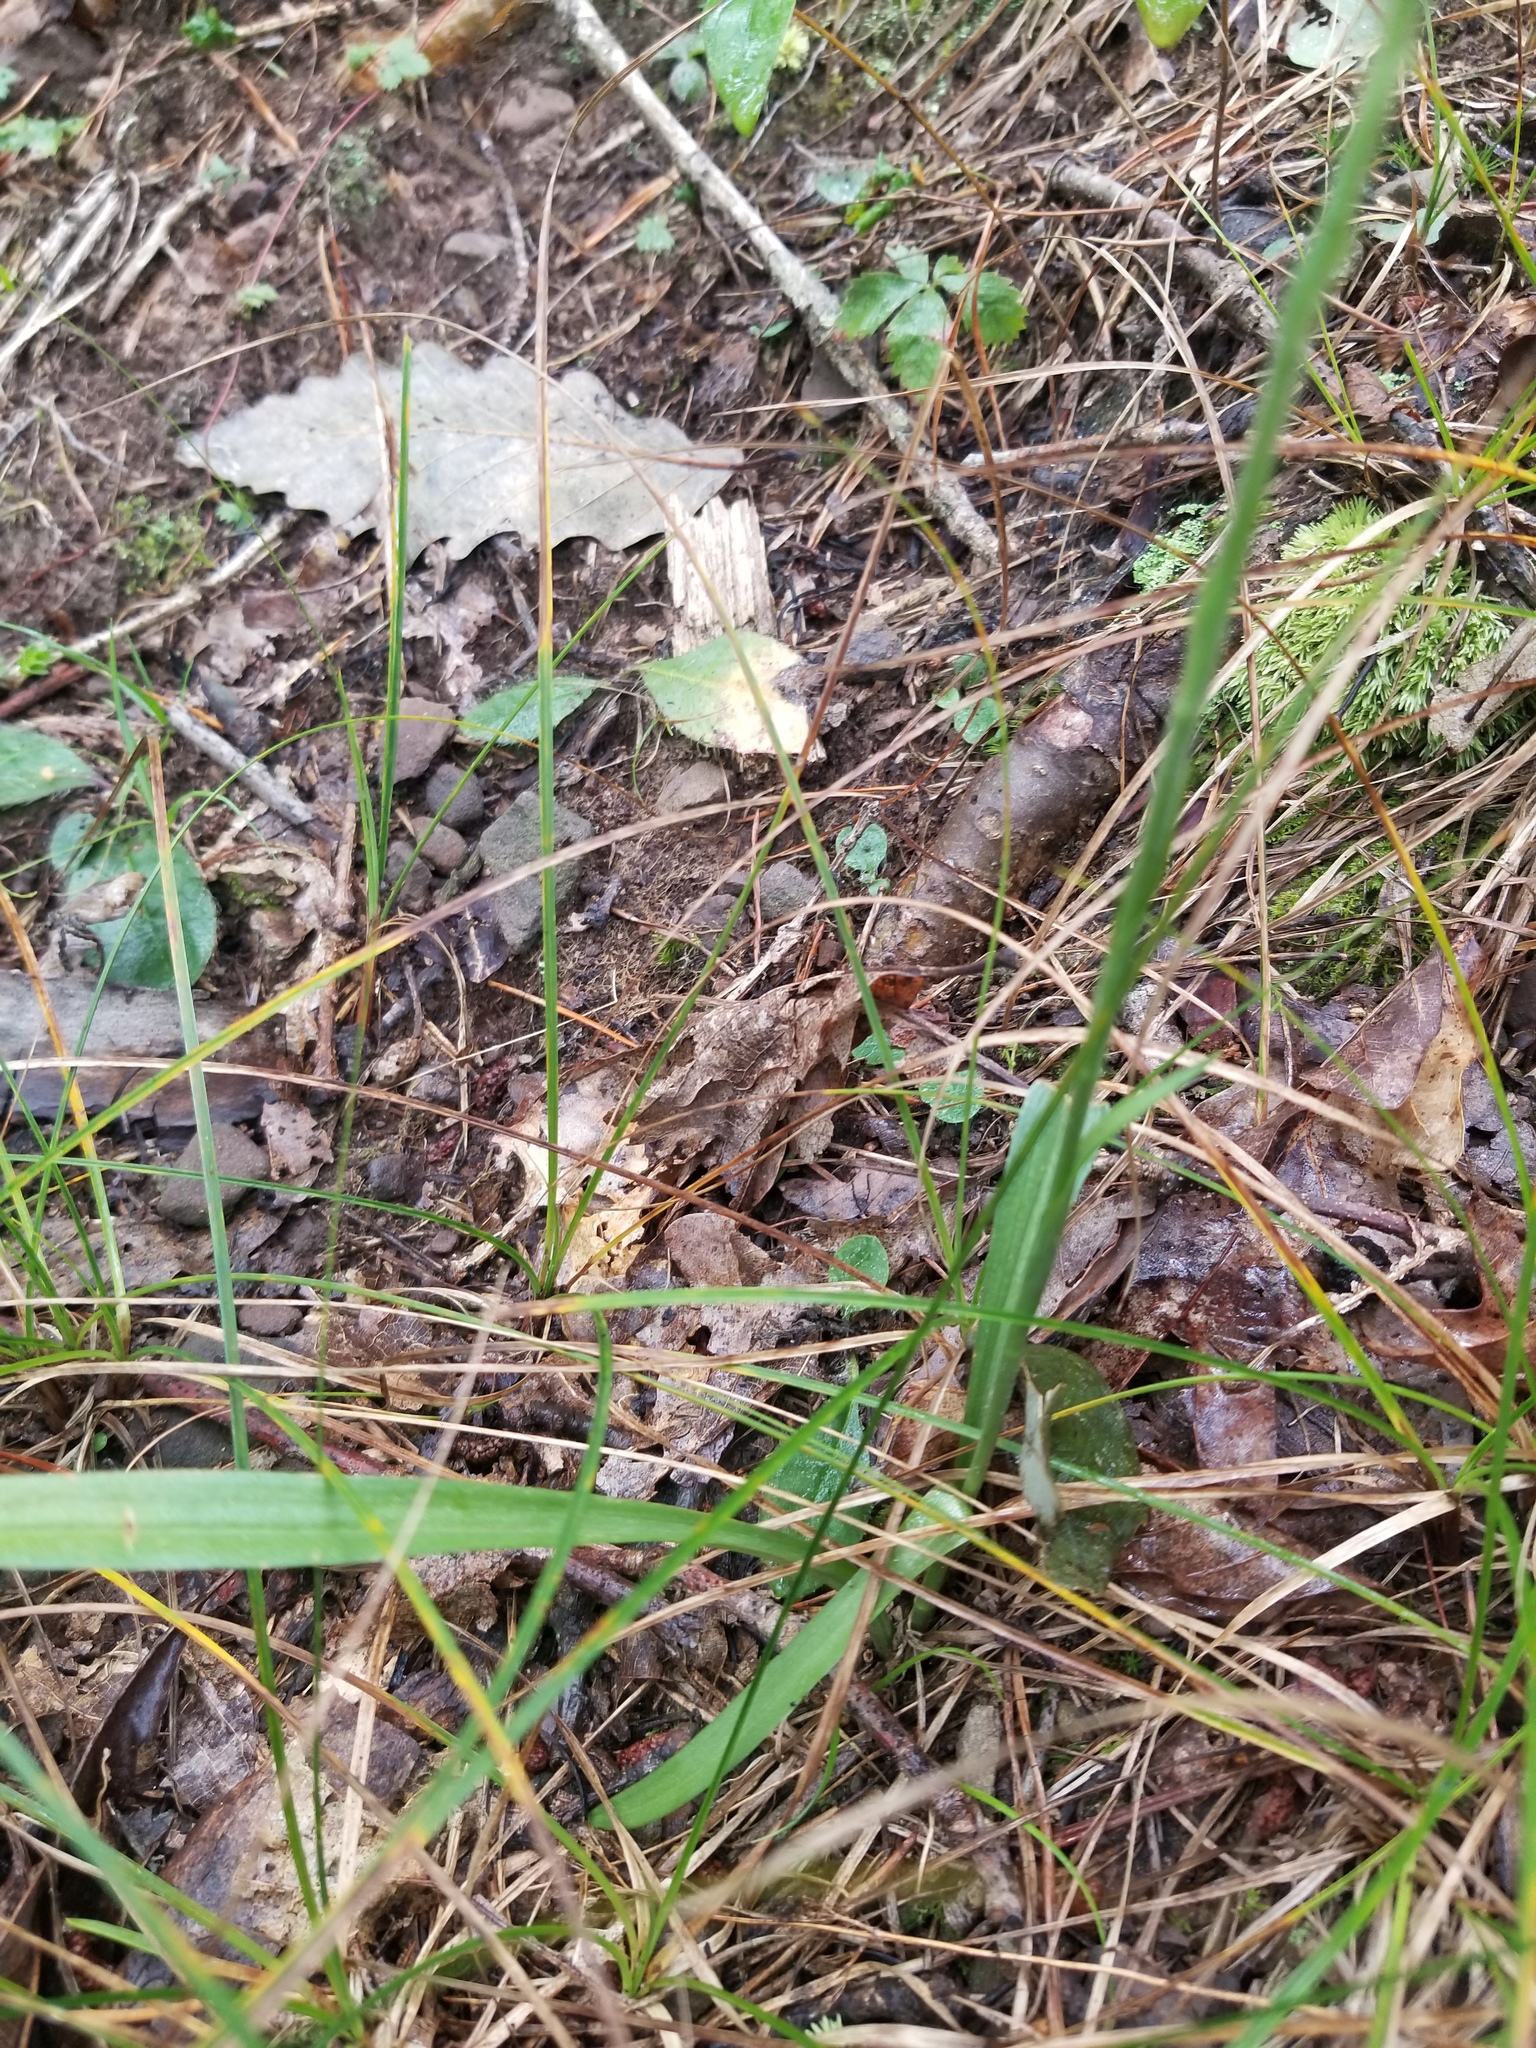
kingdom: Plantae
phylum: Tracheophyta
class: Liliopsida
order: Asparagales
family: Orchidaceae
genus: Spiranthes
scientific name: Spiranthes ochroleuca
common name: Yellow ladies'-tresses
